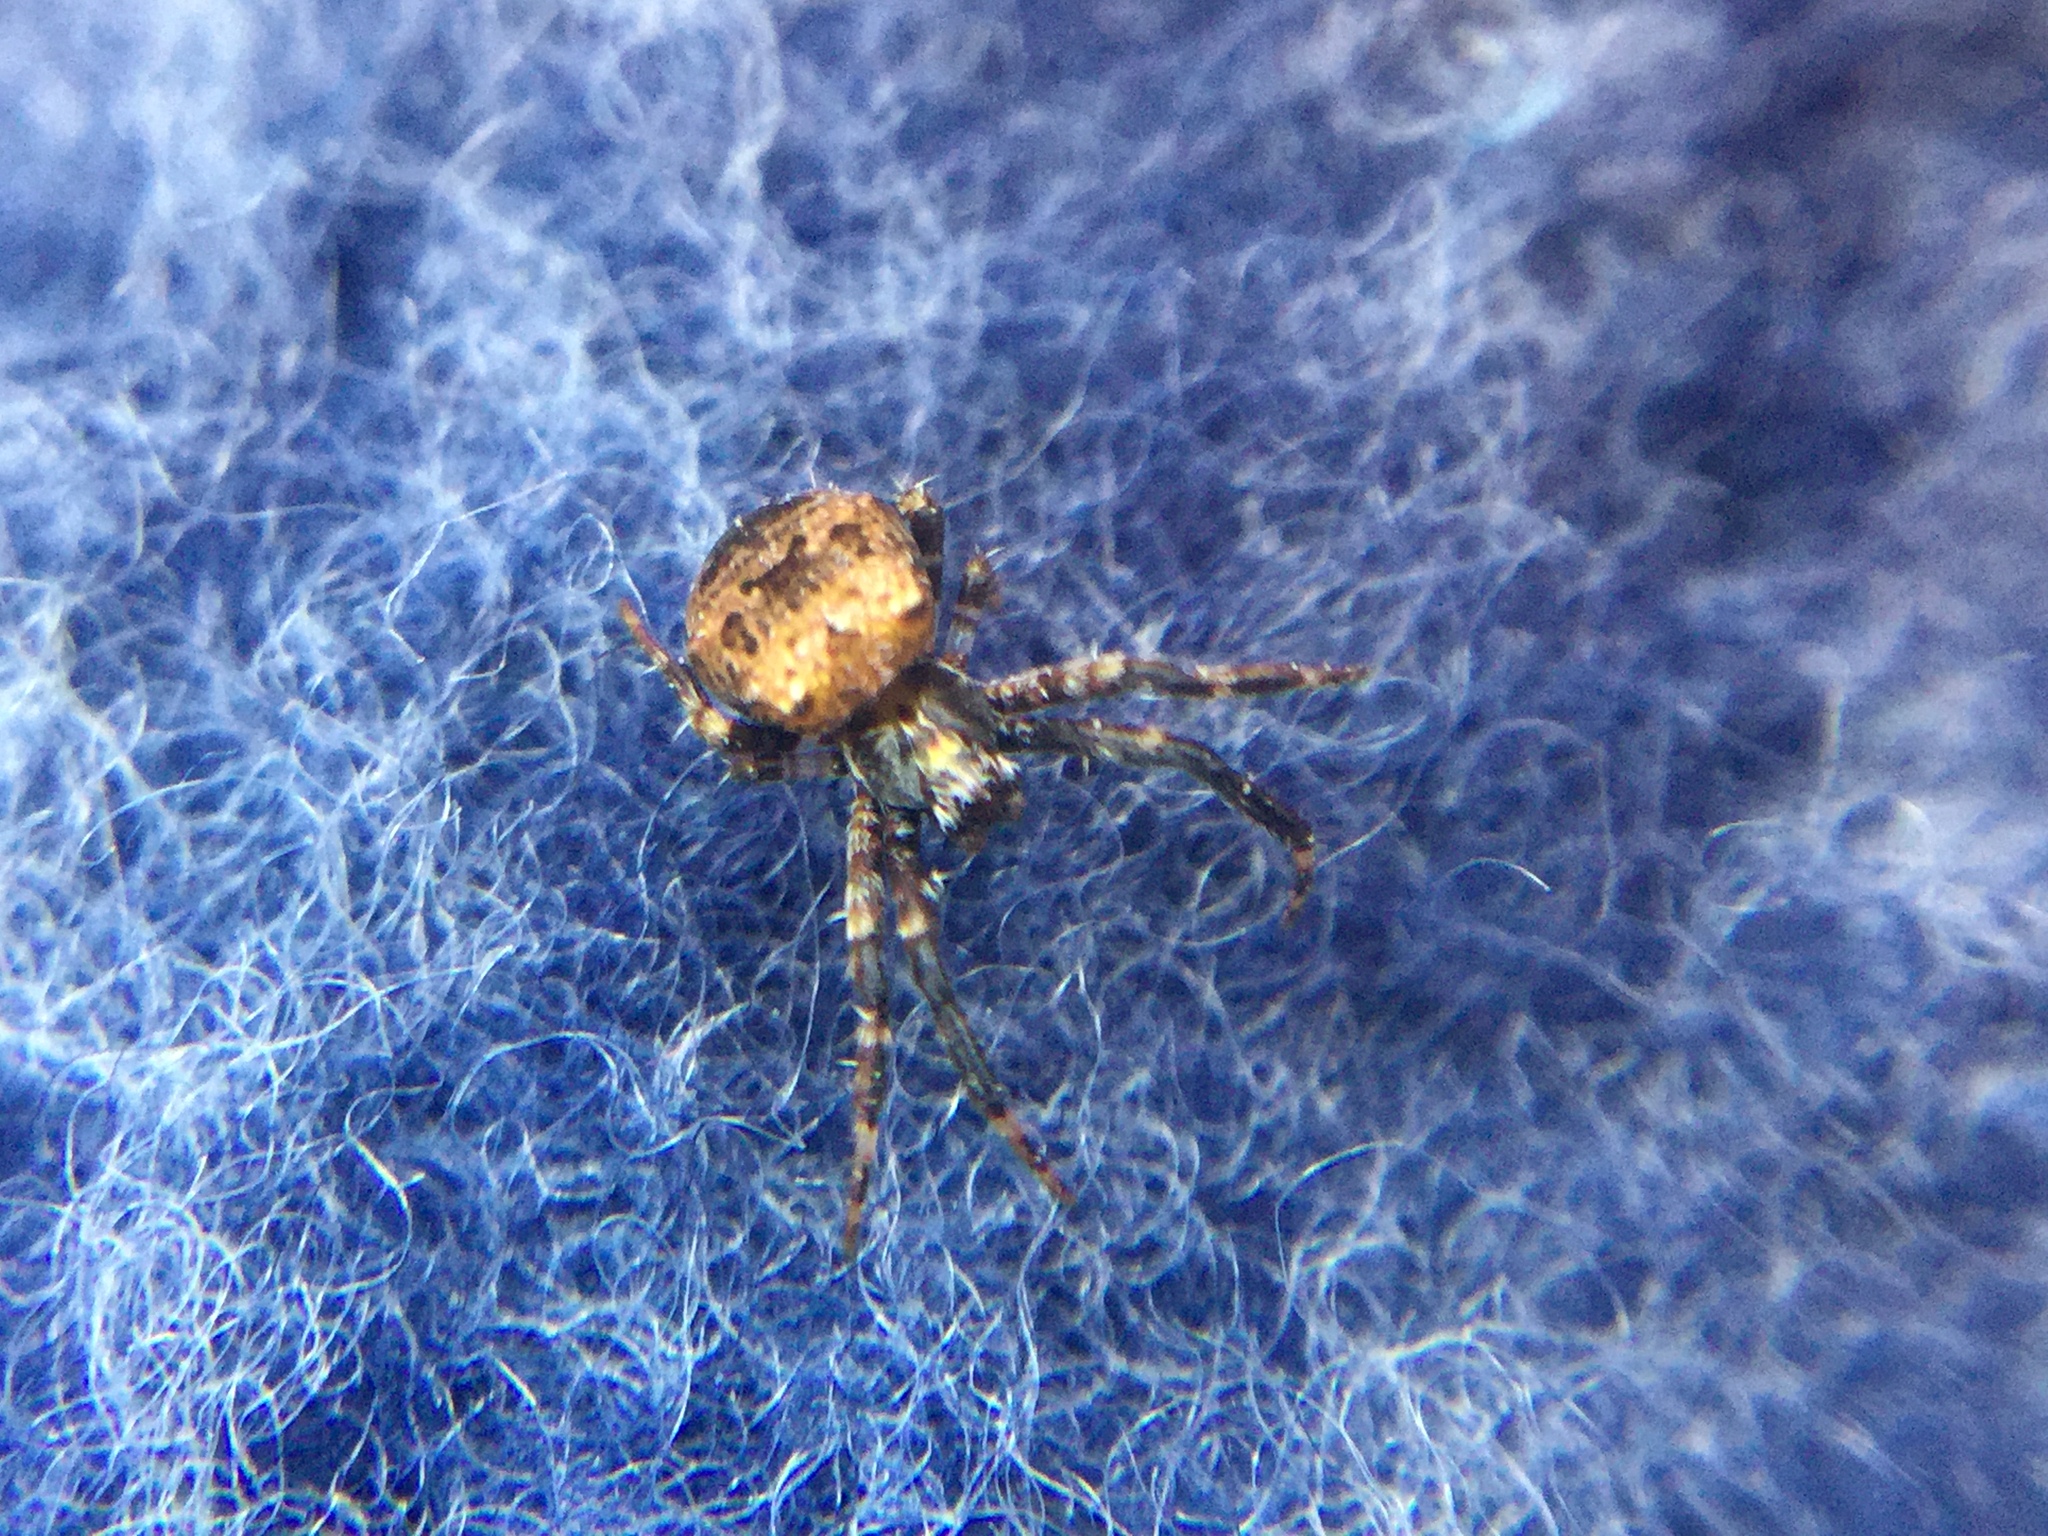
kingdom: Animalia
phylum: Arthropoda
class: Arachnida
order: Araneae
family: Araneidae
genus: Gea
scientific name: Gea heptagon
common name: Orb weavers
